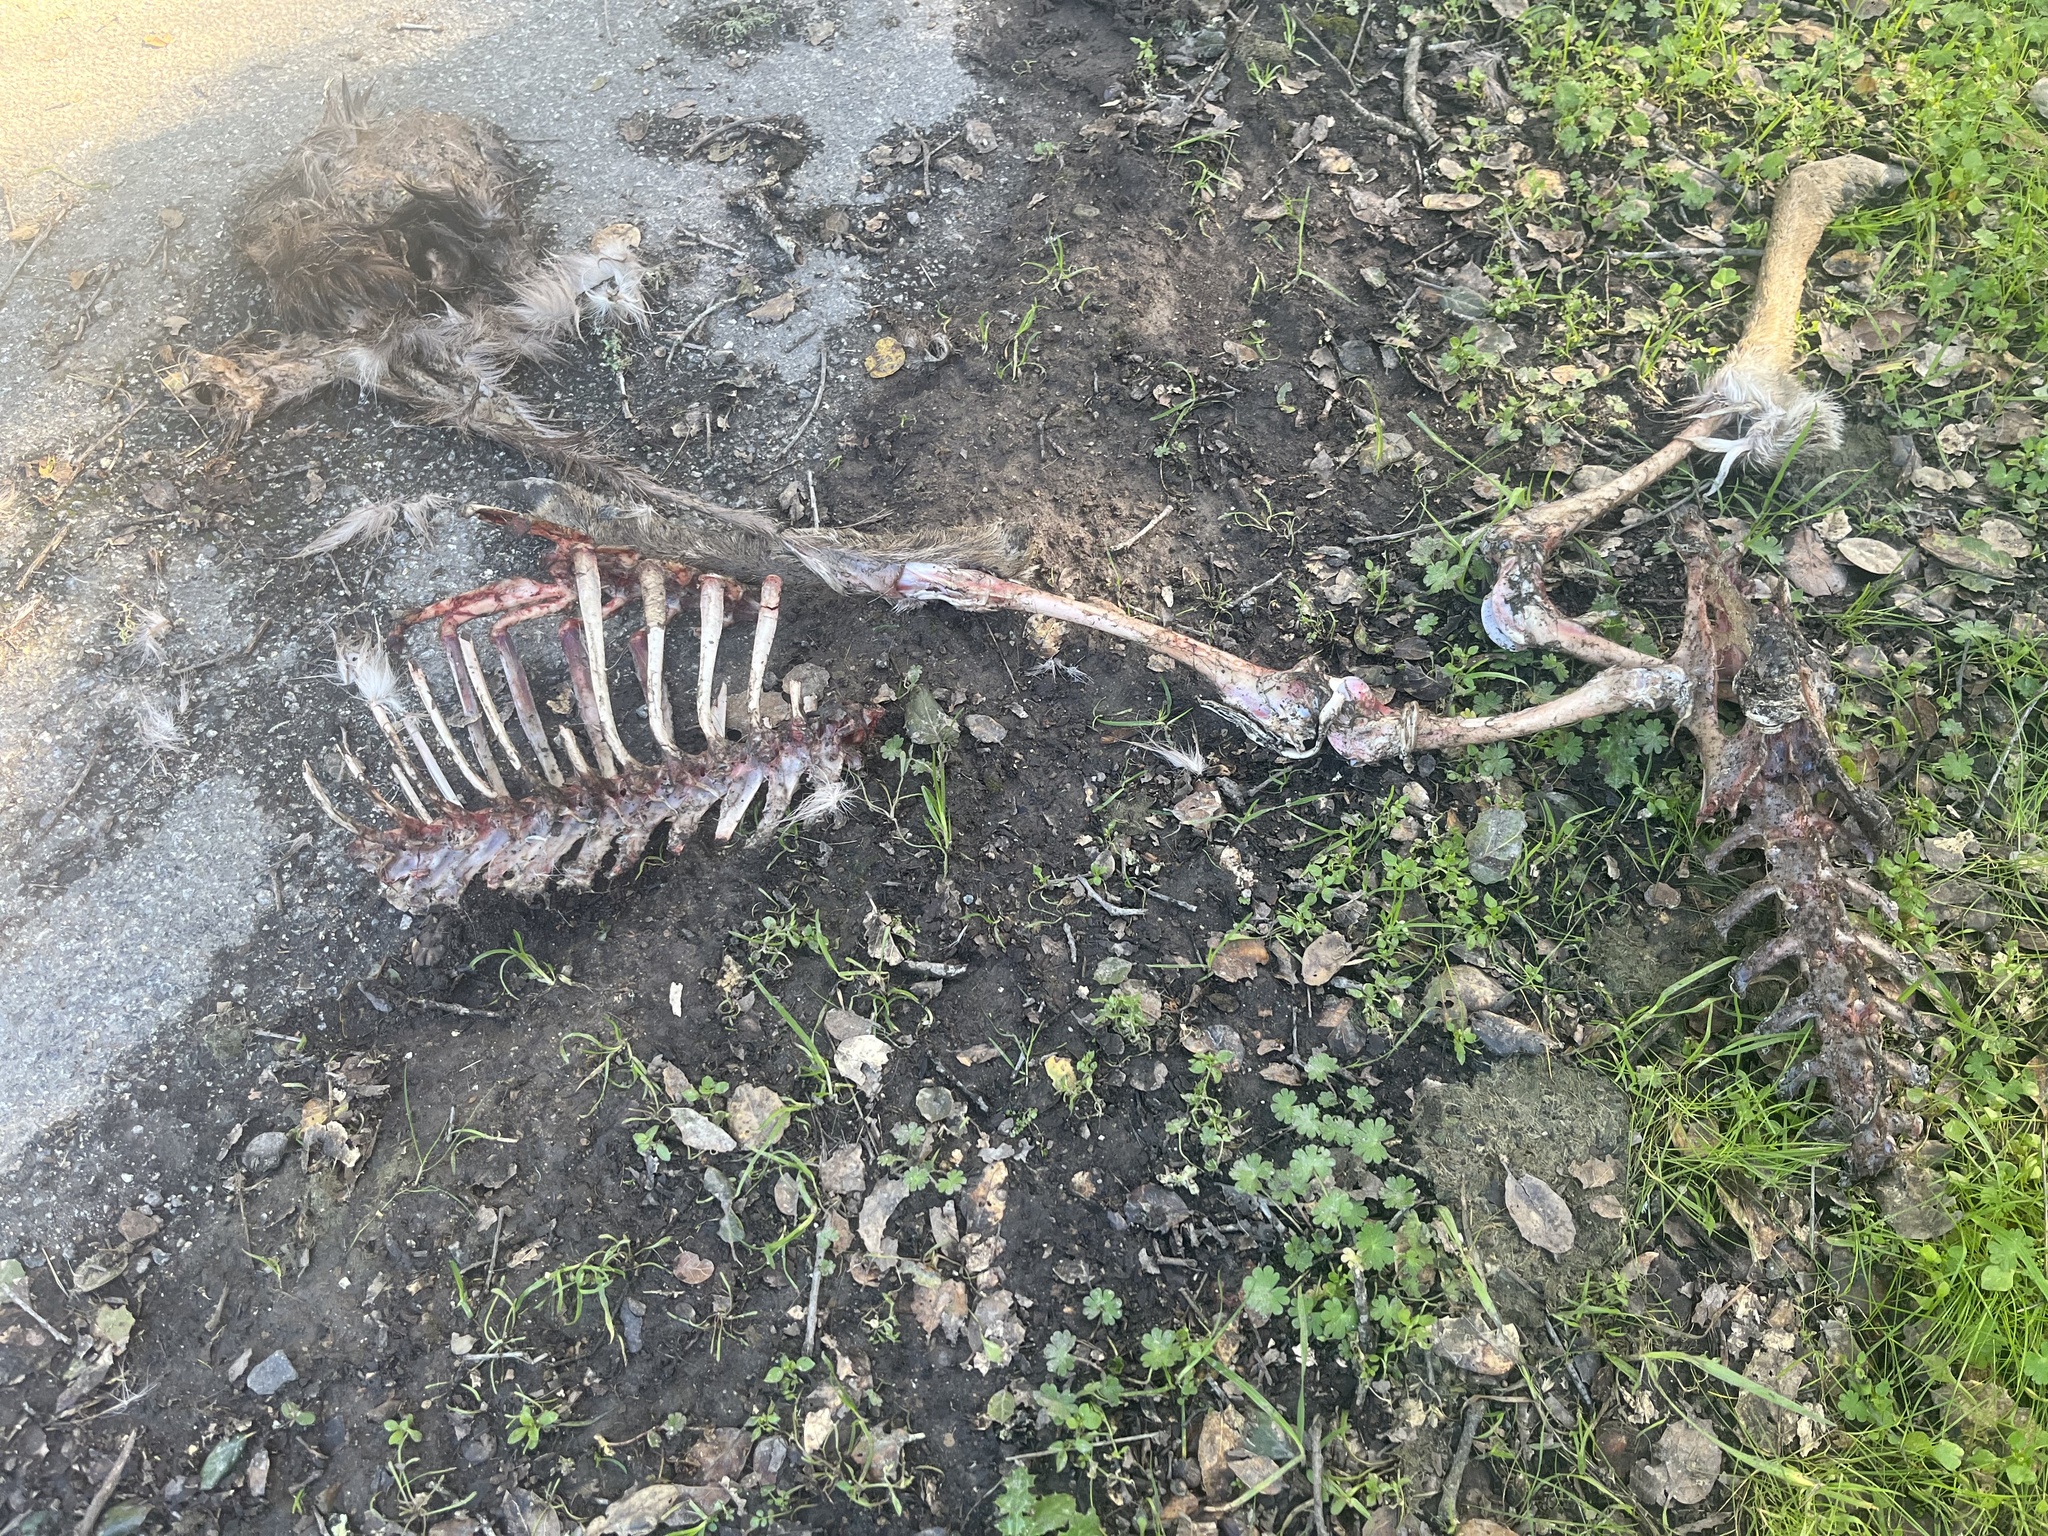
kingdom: Animalia
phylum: Chordata
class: Mammalia
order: Artiodactyla
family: Cervidae
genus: Odocoileus
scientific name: Odocoileus hemionus
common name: Mule deer
